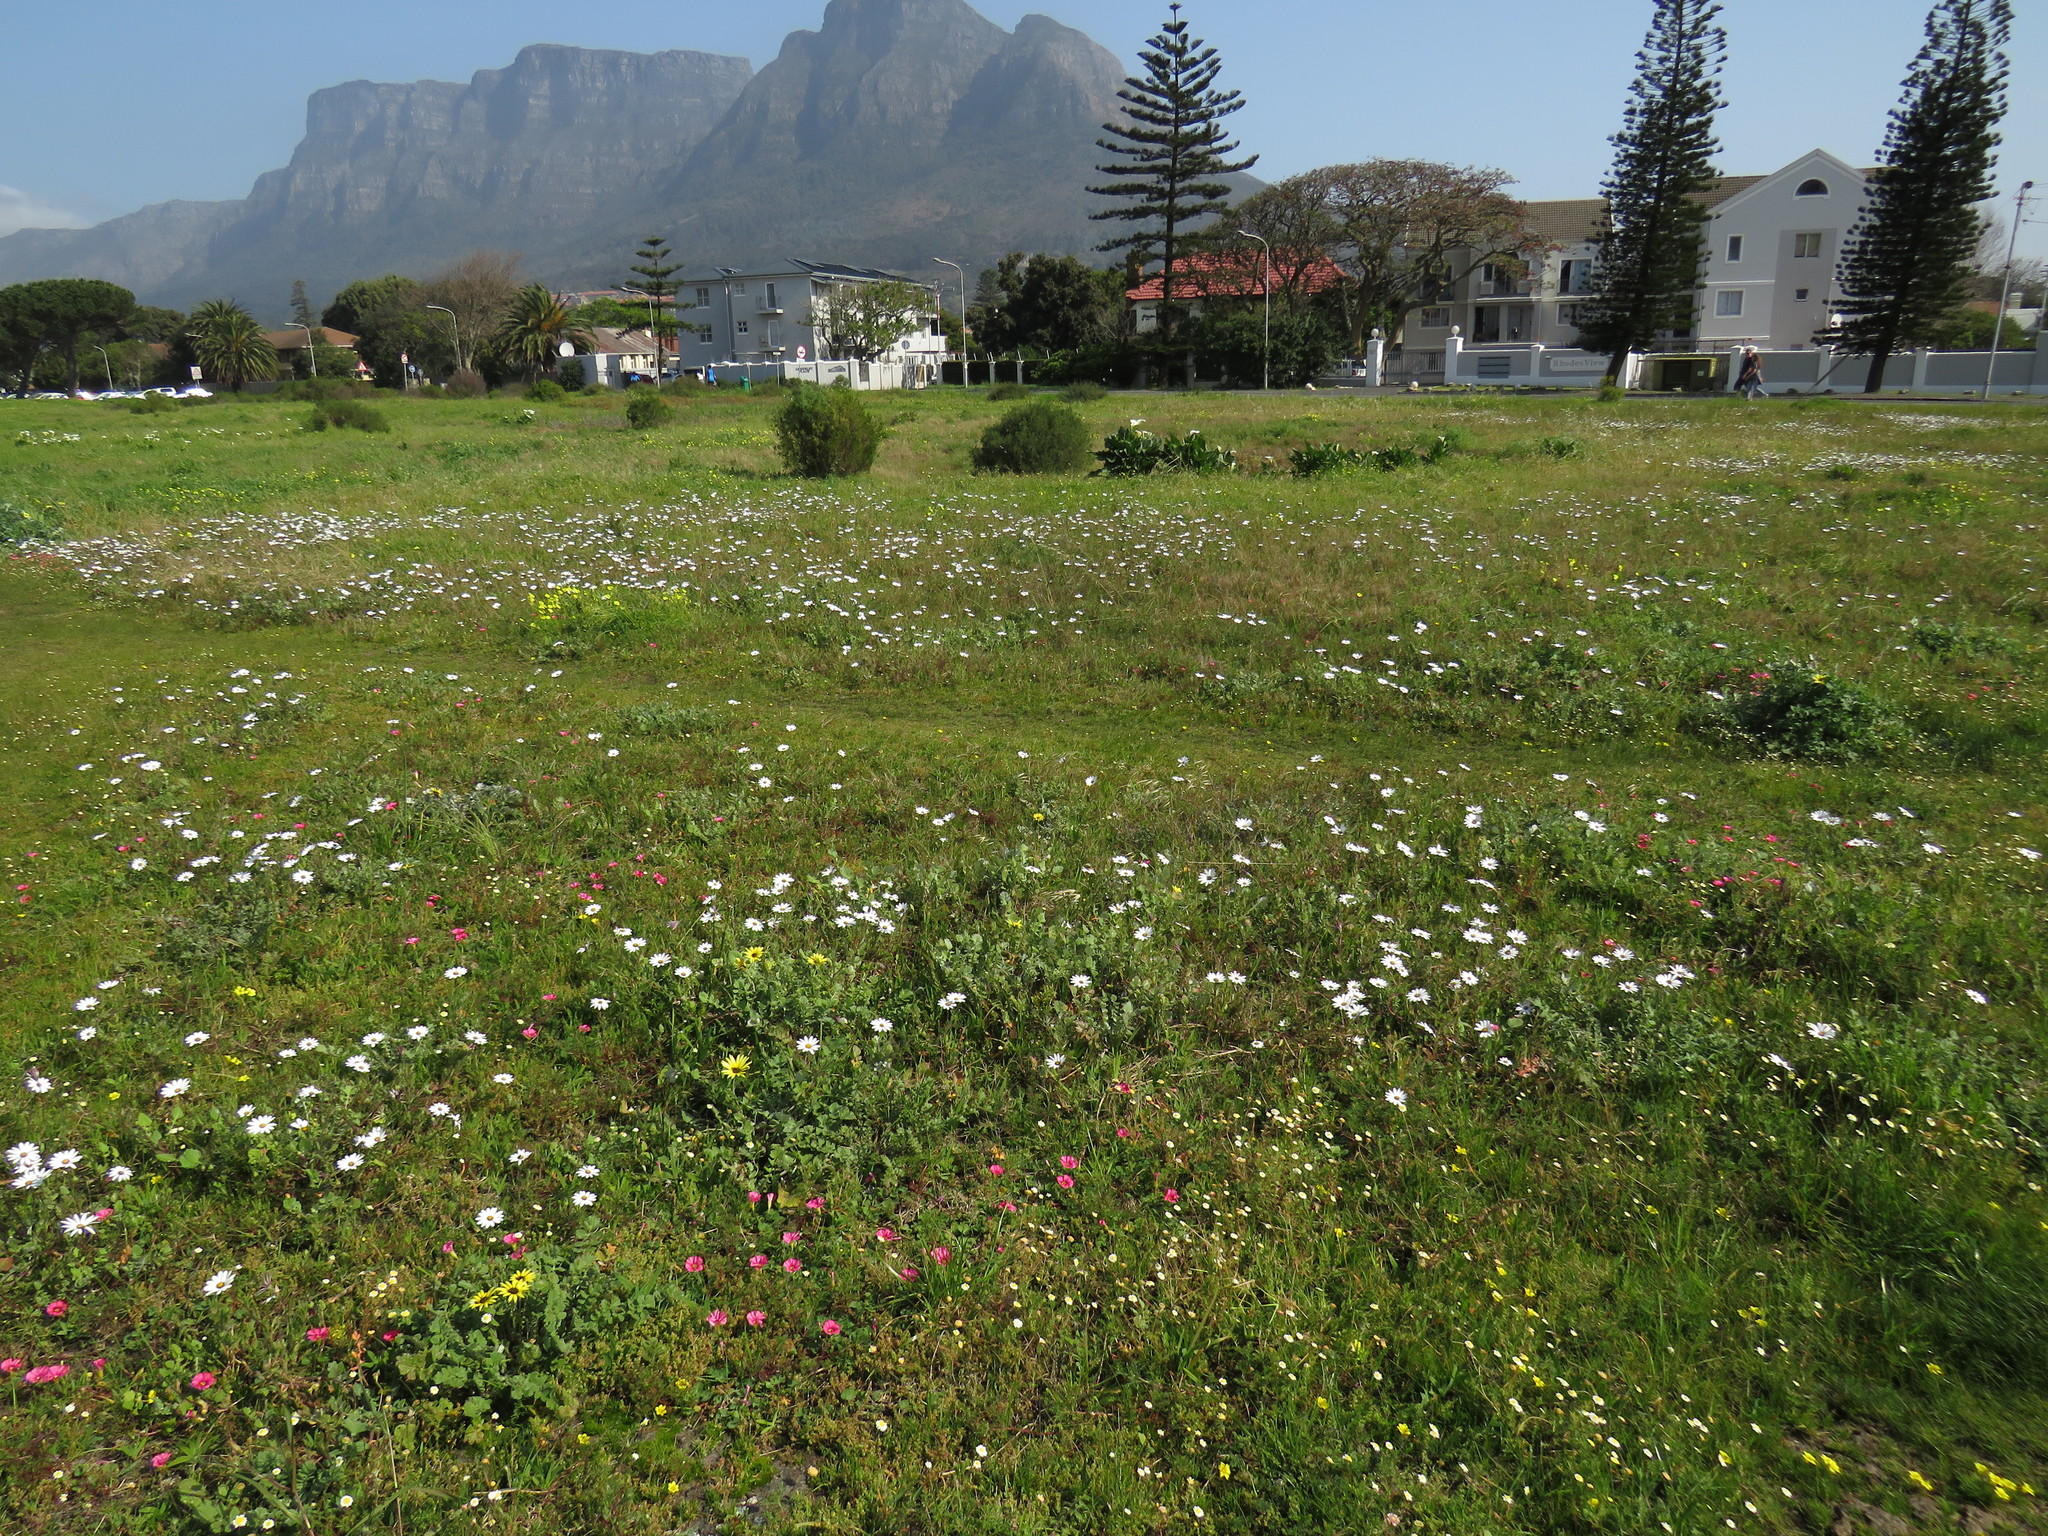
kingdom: Plantae
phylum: Tracheophyta
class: Magnoliopsida
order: Oxalidales
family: Oxalidaceae
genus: Oxalis
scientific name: Oxalis purpurea
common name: Purple woodsorrel
